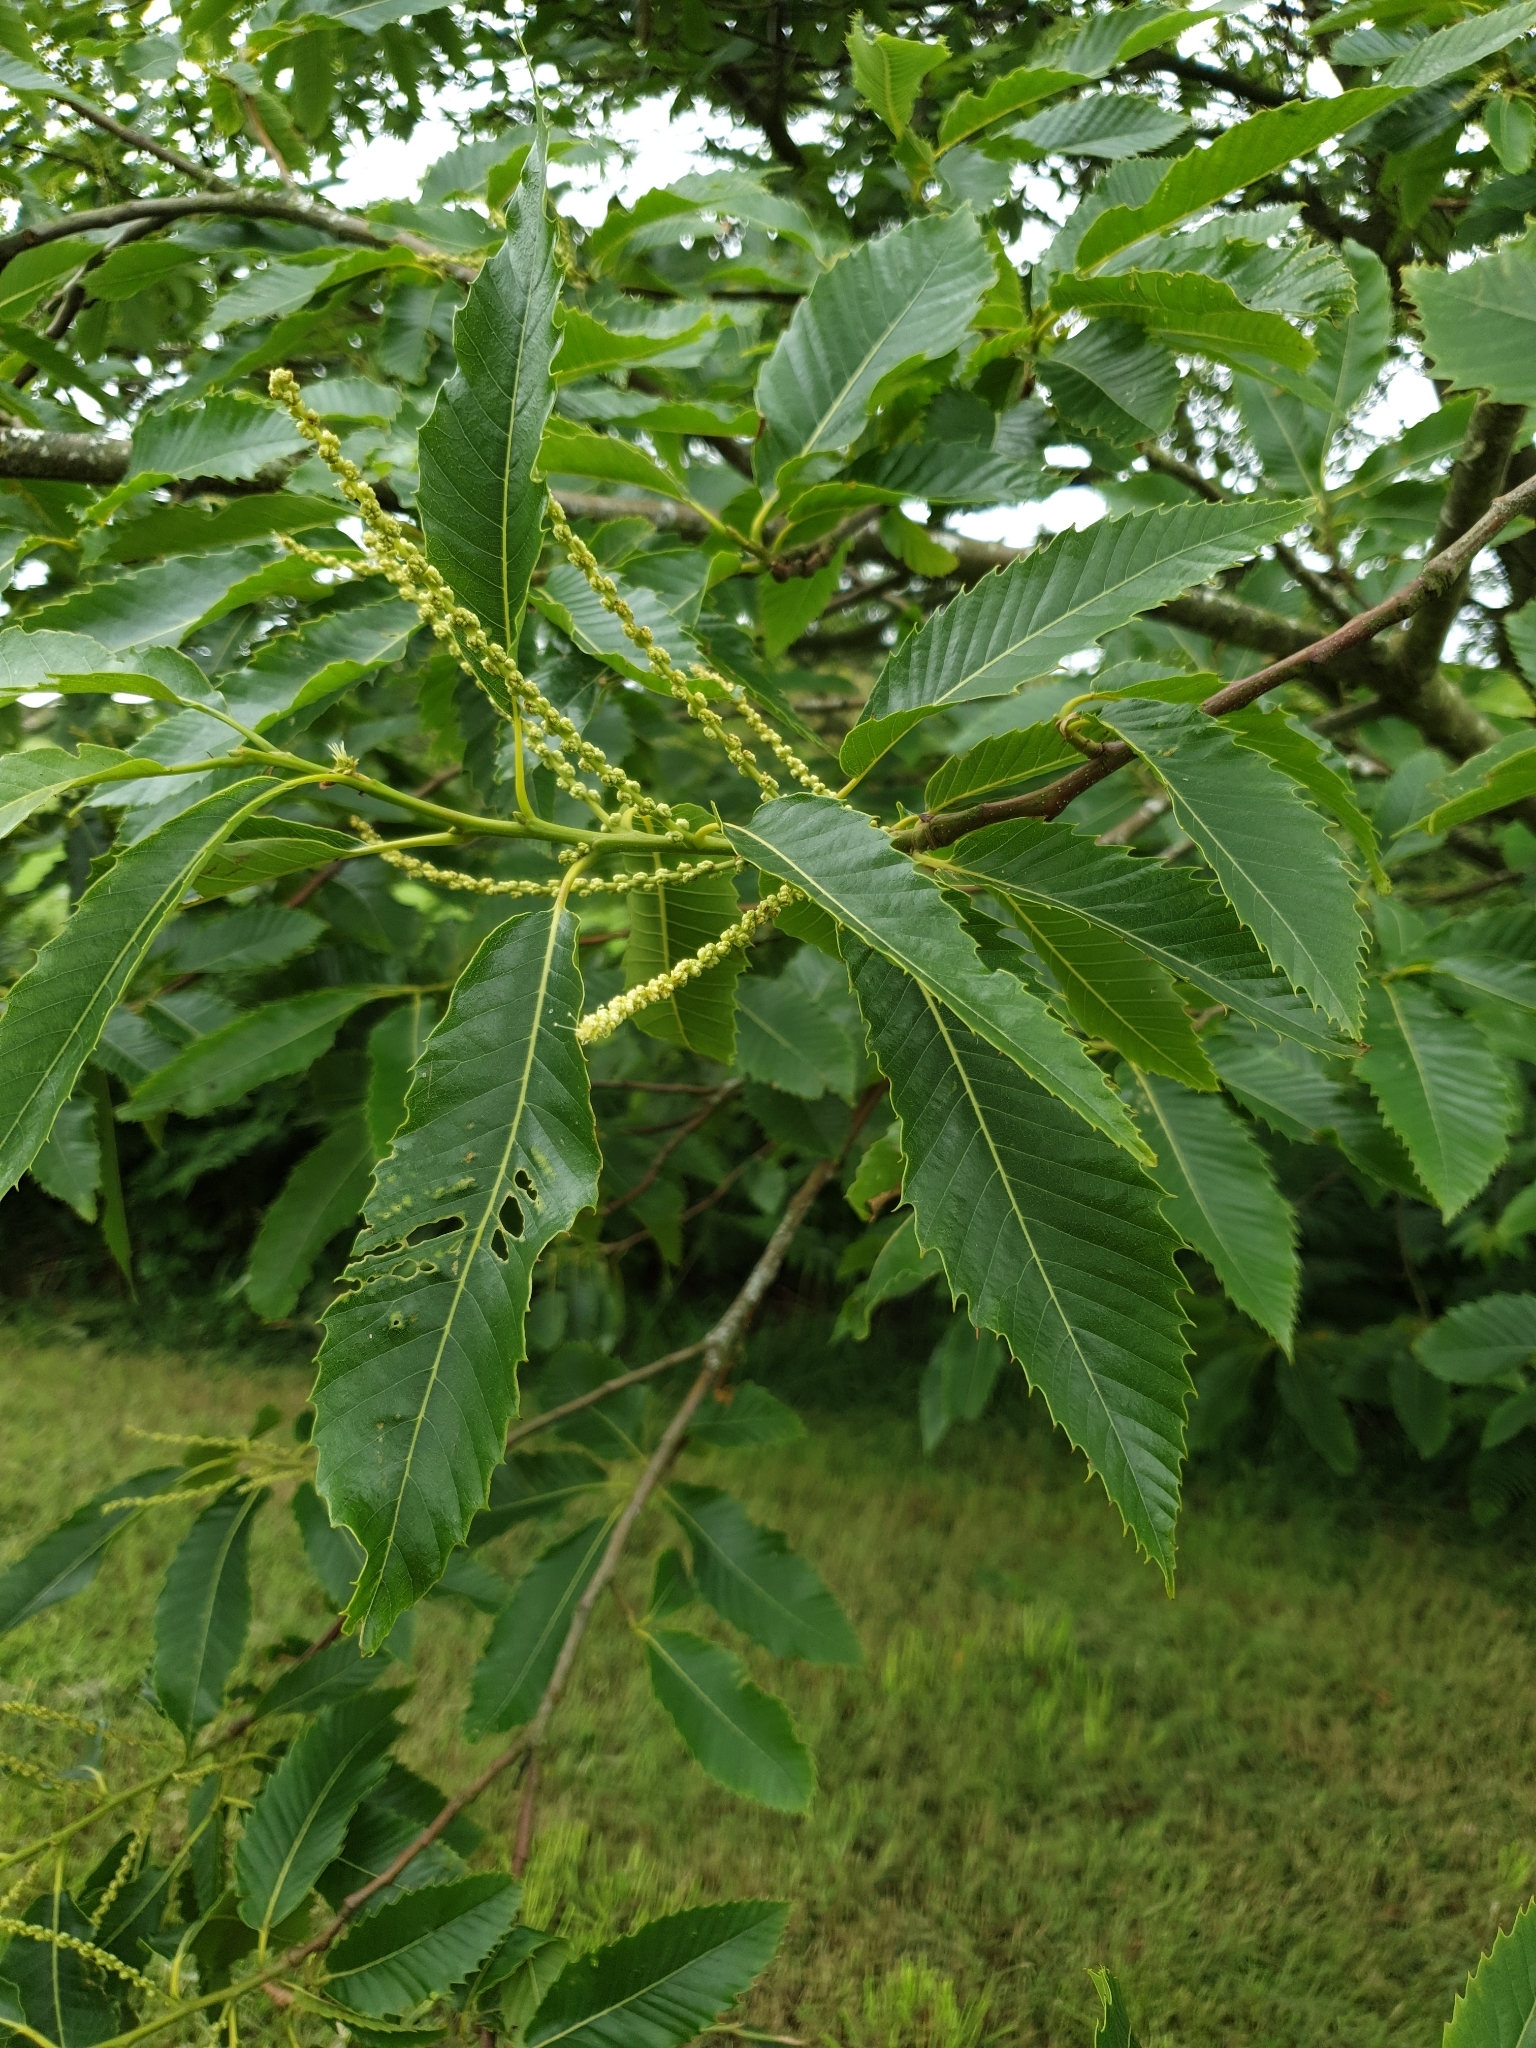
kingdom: Plantae
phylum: Tracheophyta
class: Magnoliopsida
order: Fagales
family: Fagaceae
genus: Castanea
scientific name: Castanea sativa
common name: Sweet chestnut
